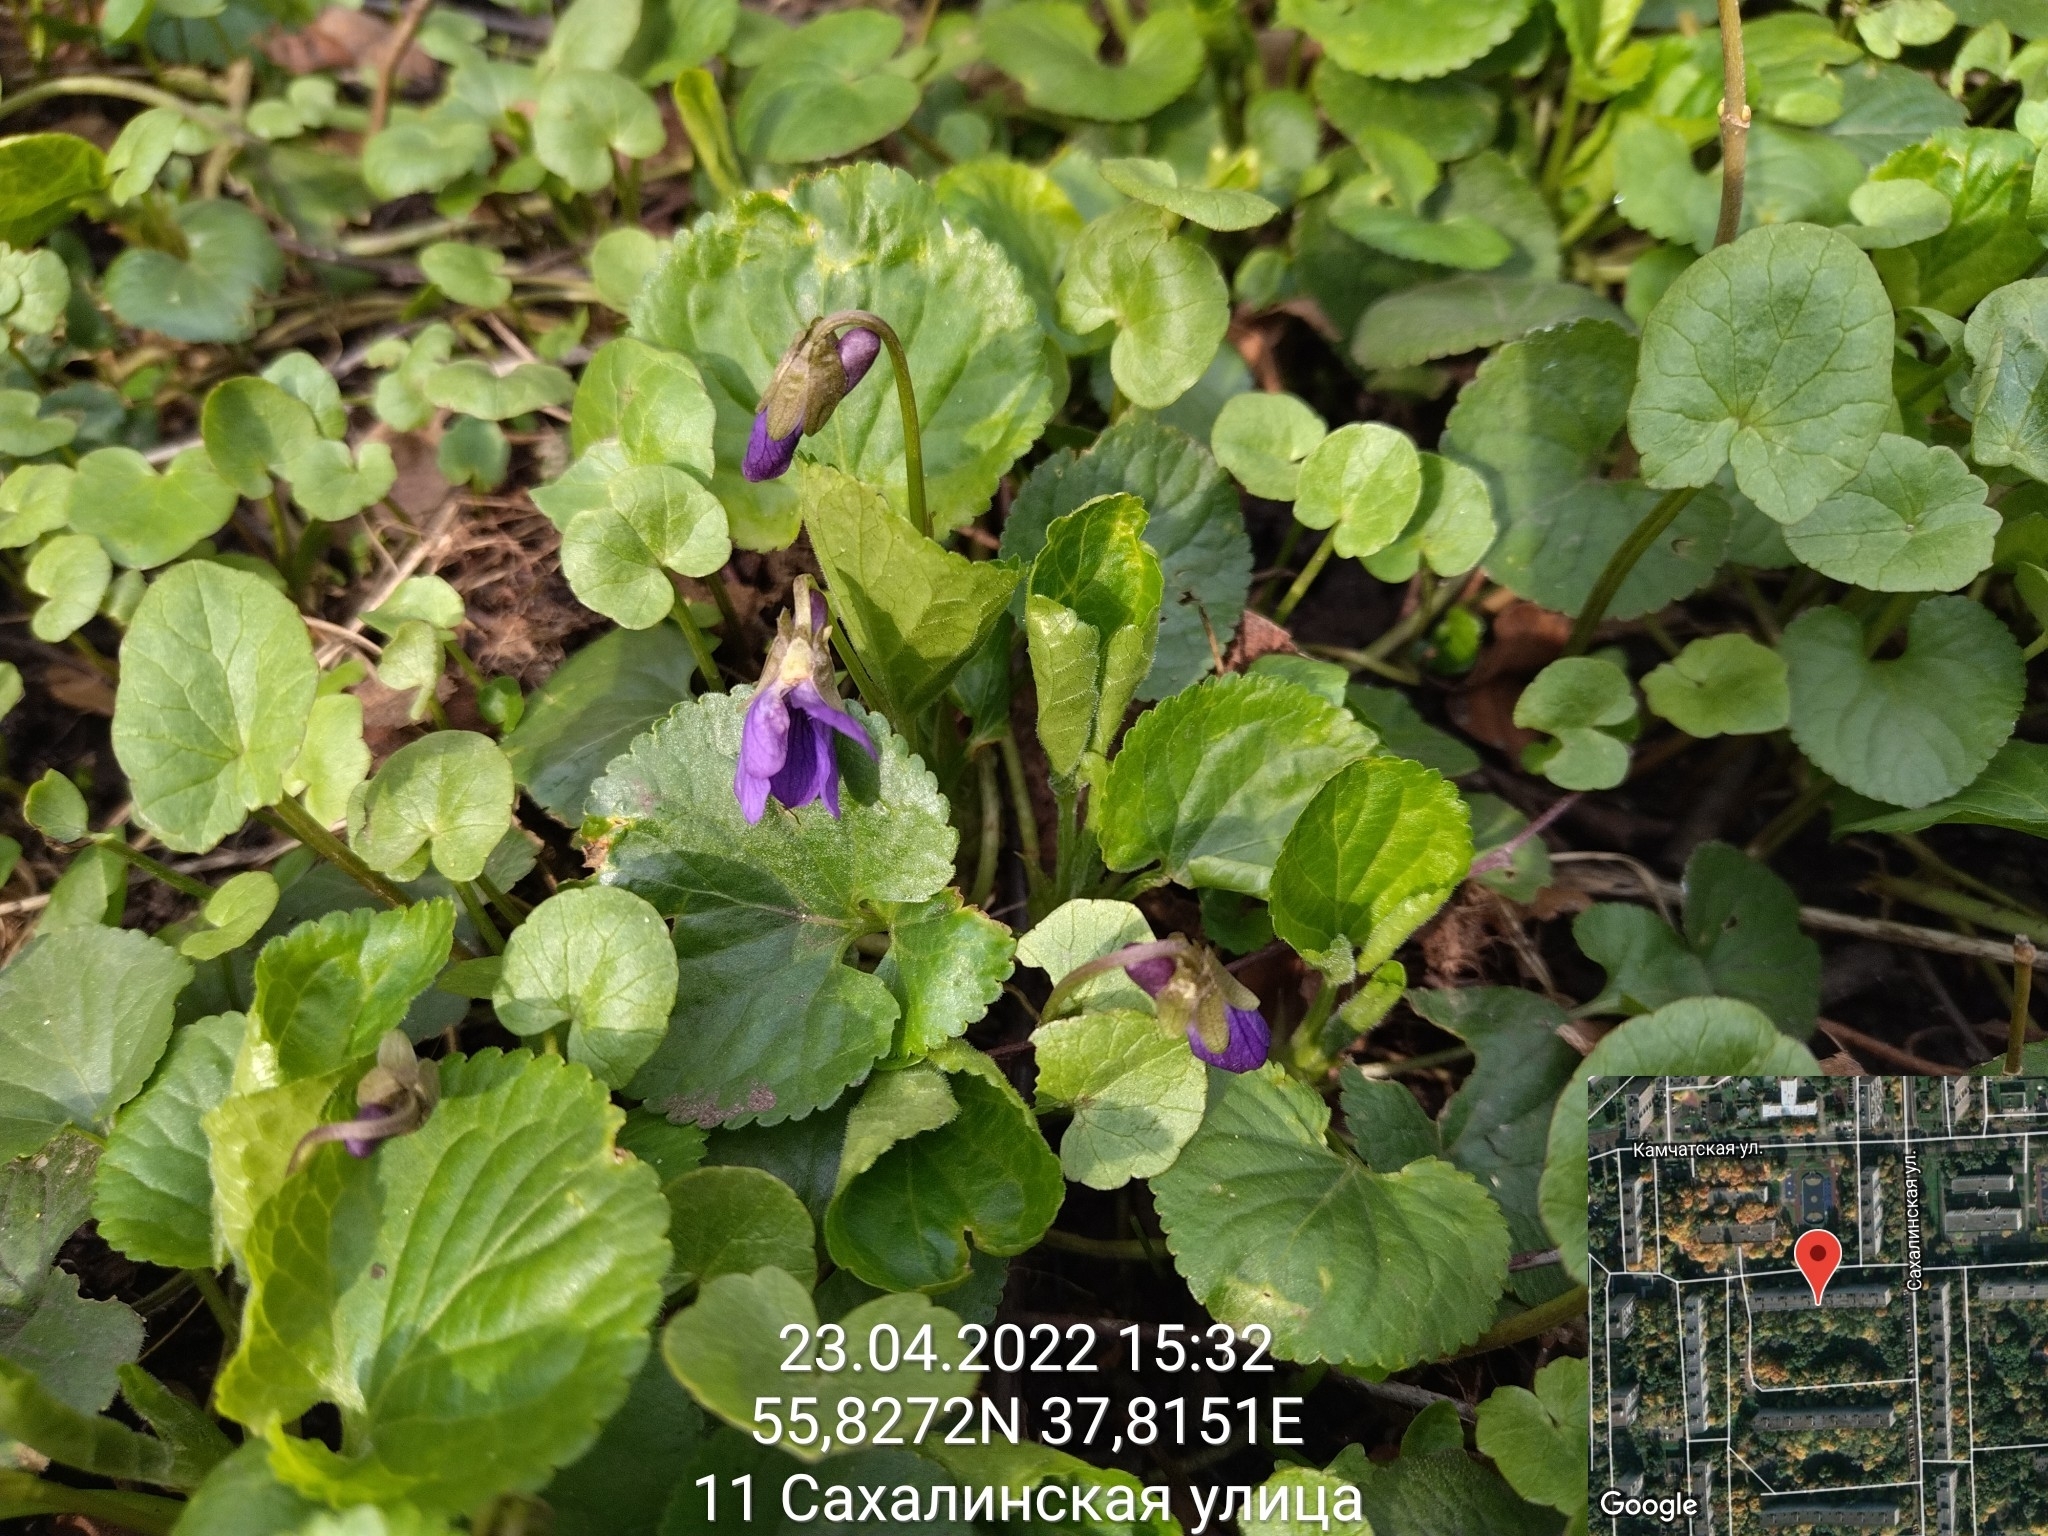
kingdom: Plantae
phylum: Tracheophyta
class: Magnoliopsida
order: Malpighiales
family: Violaceae
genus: Viola
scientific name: Viola odorata
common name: Sweet violet
